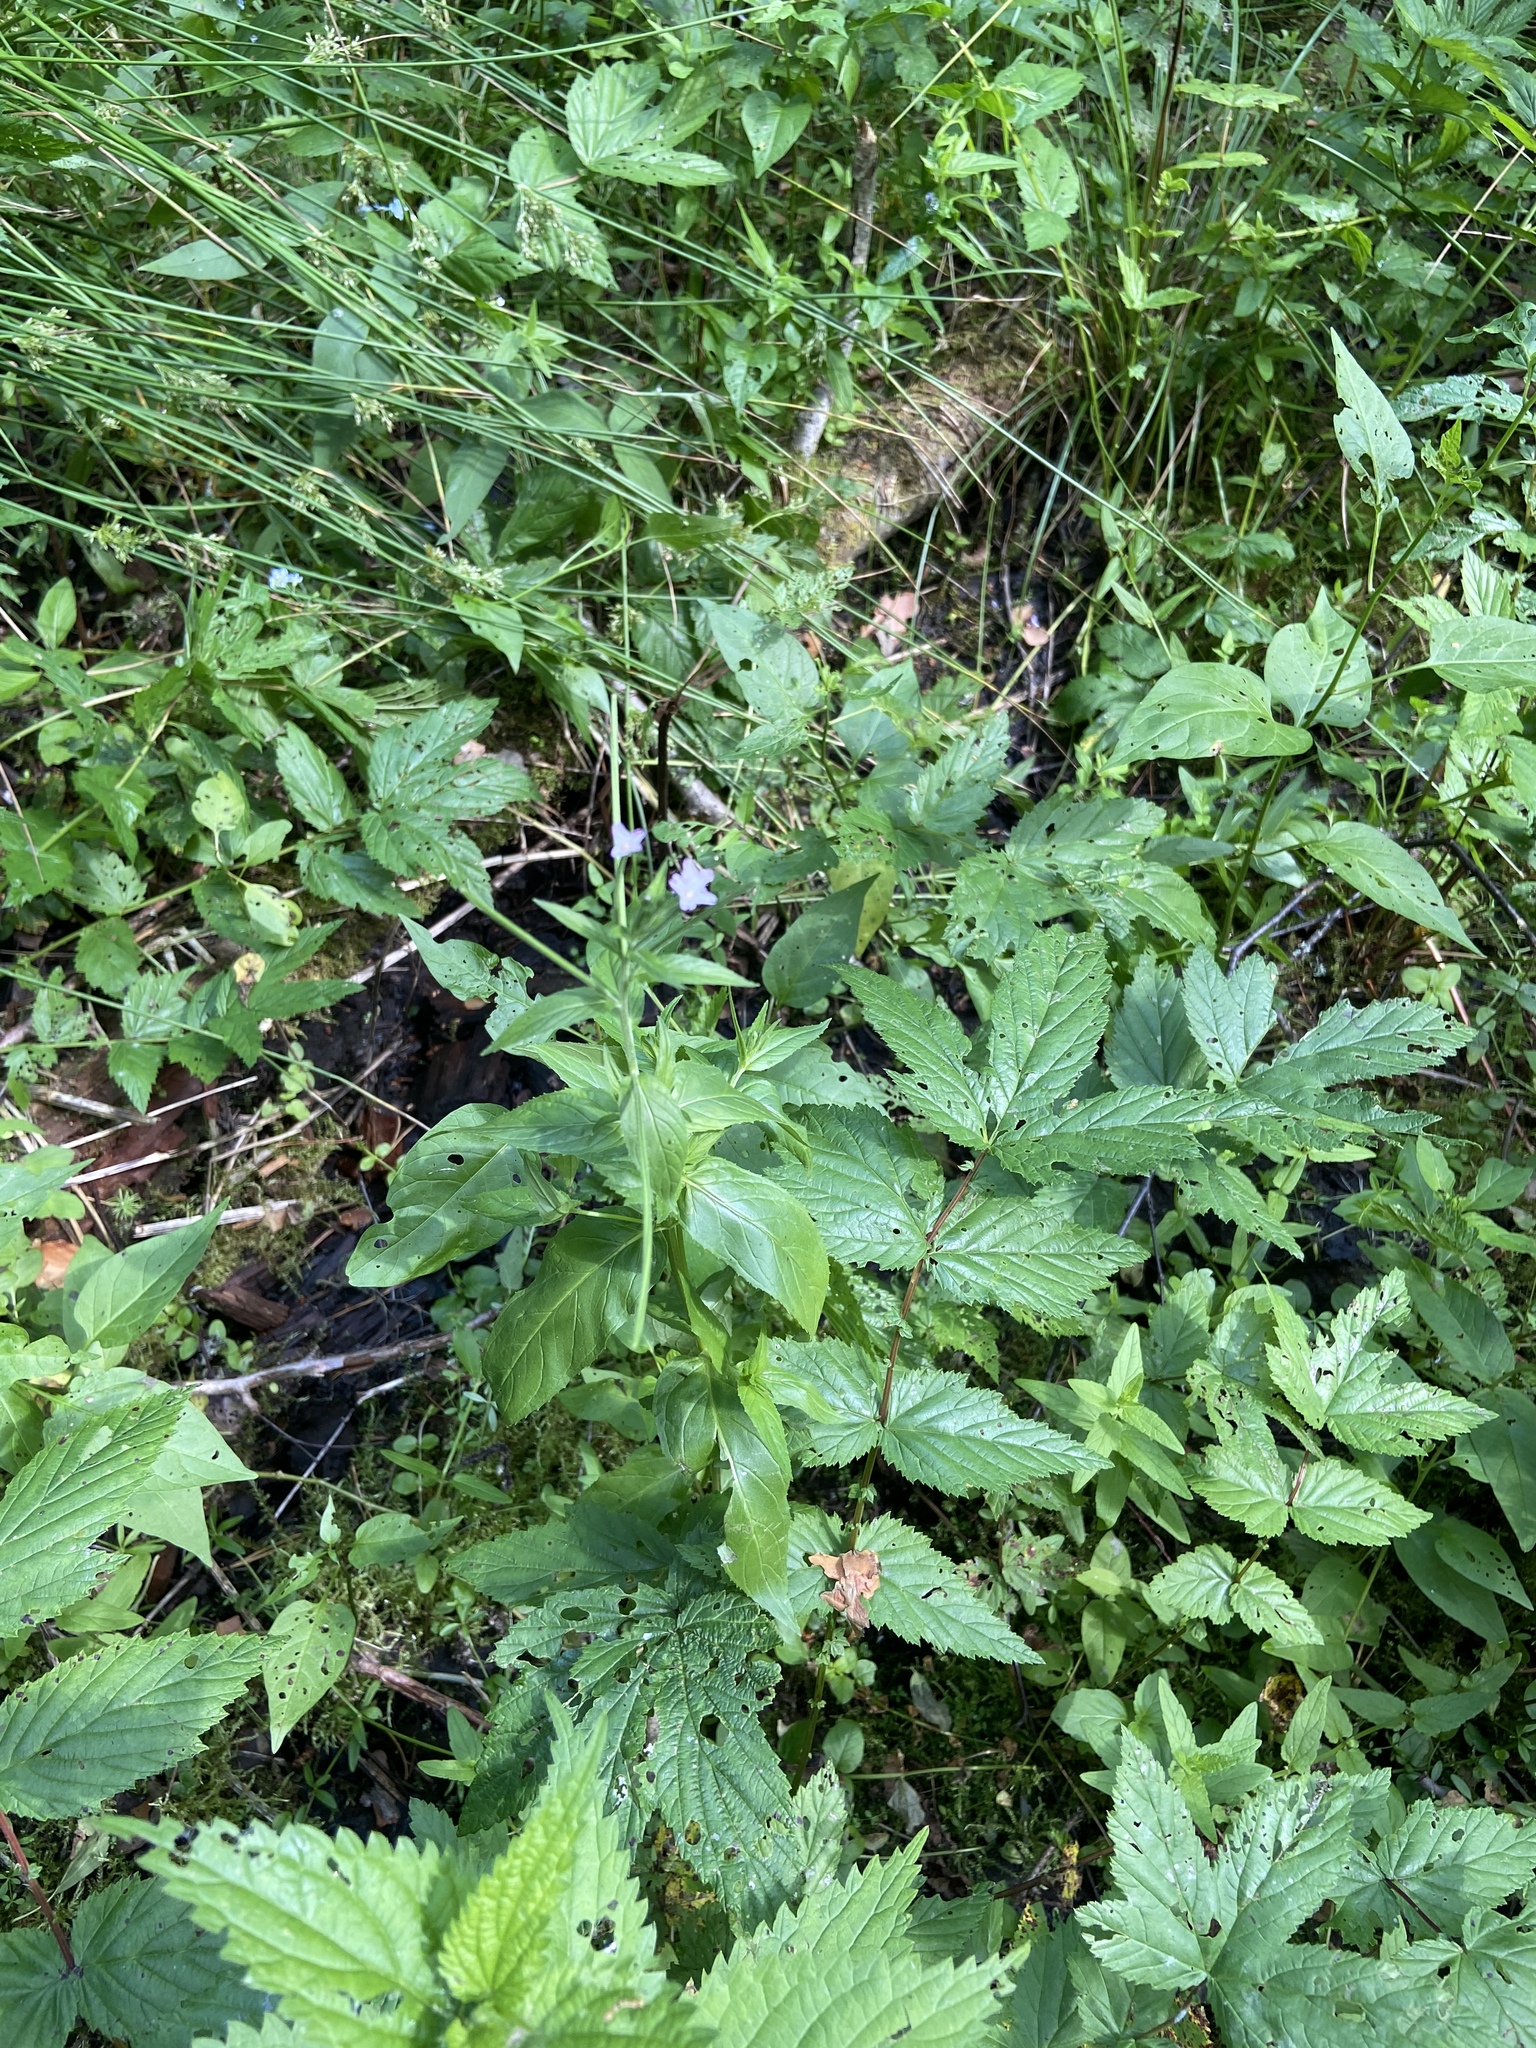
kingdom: Plantae
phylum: Tracheophyta
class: Magnoliopsida
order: Myrtales
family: Onagraceae
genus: Epilobium
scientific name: Epilobium montanum
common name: Broad-leaved willowherb
